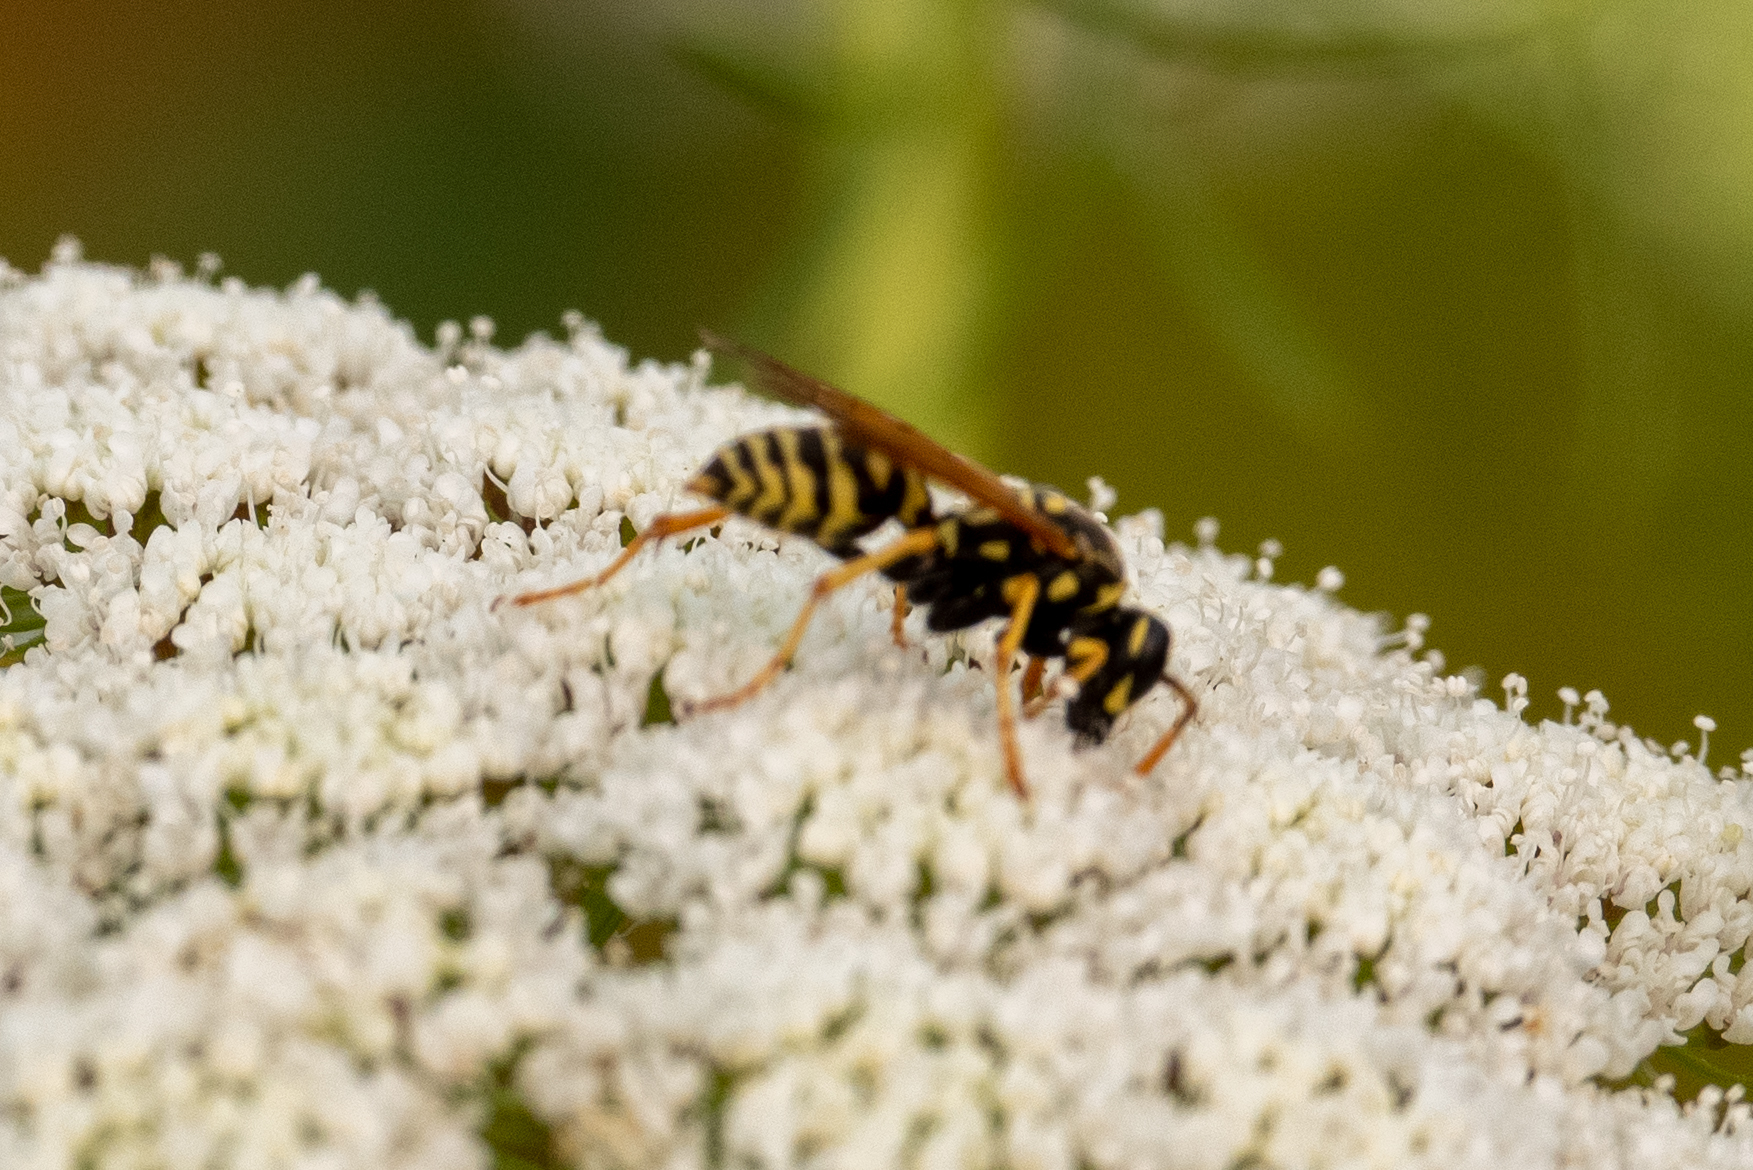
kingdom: Animalia
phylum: Arthropoda
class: Insecta
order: Hymenoptera
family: Eumenidae
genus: Polistes
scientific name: Polistes dominula
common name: Paper wasp
